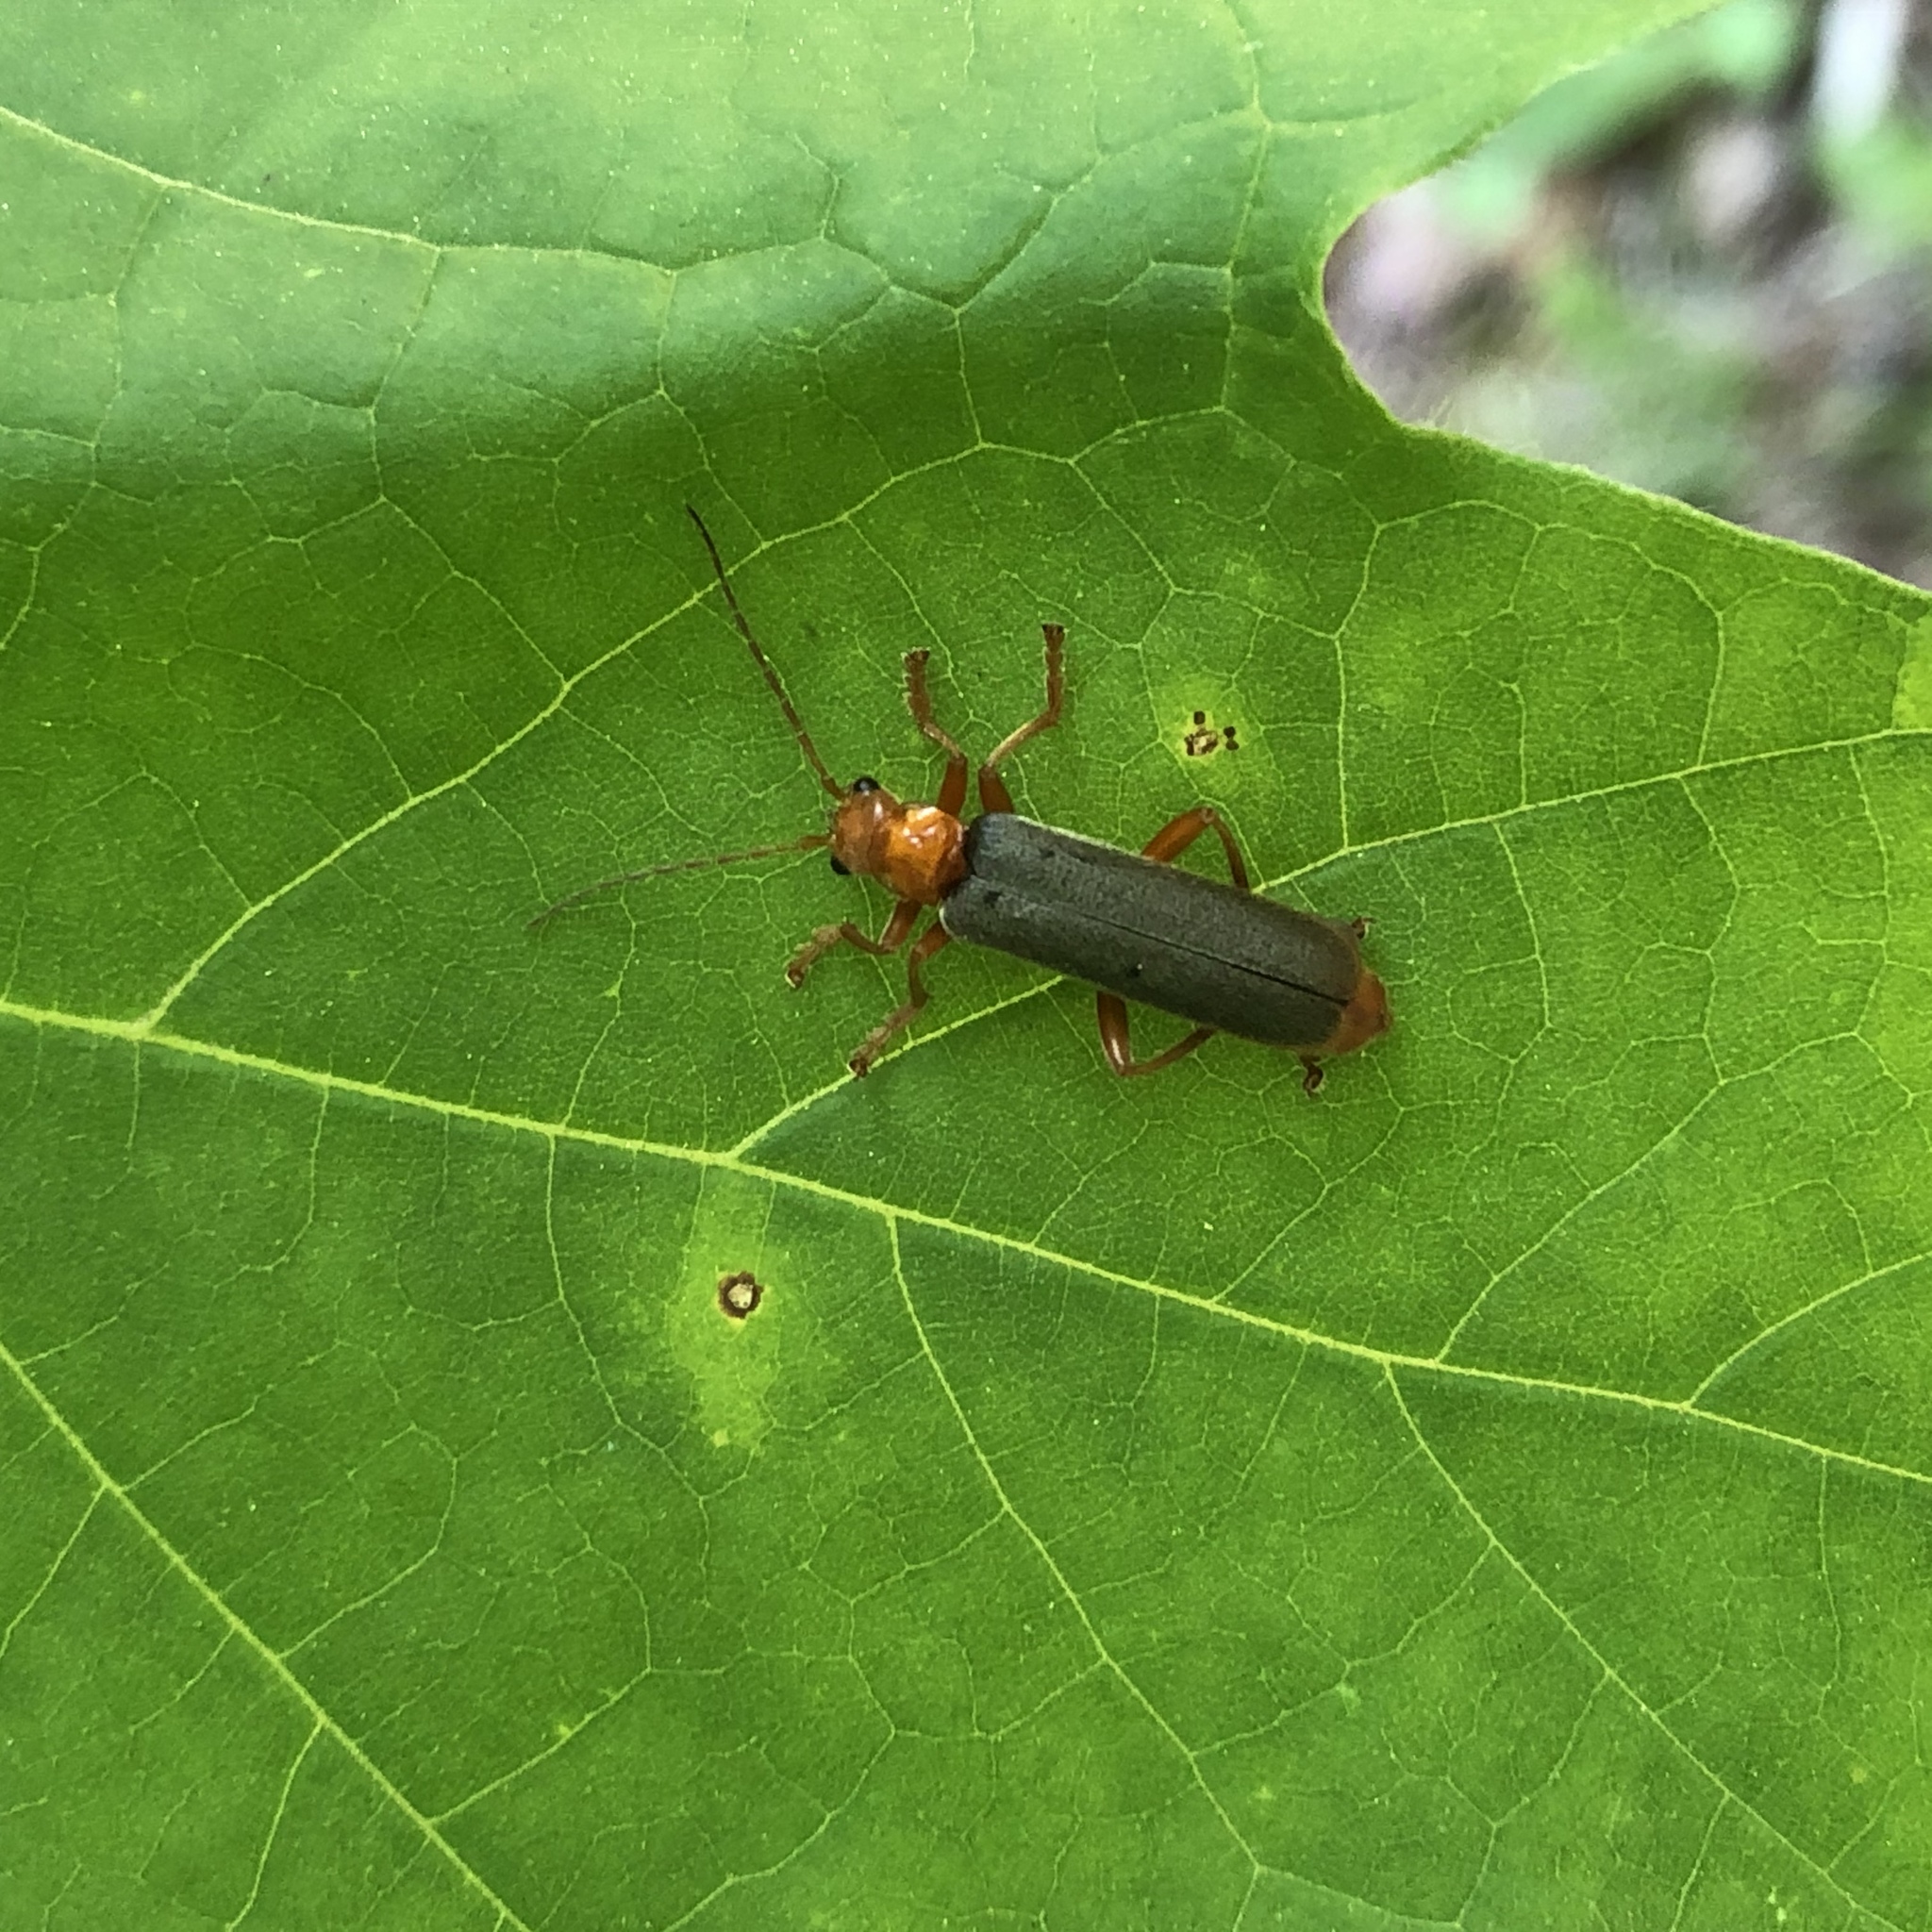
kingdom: Animalia
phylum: Arthropoda
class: Insecta
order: Coleoptera
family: Cantharidae
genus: Pacificanthia
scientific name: Pacificanthia rotundicollis
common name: Brown leatherwing beetle
